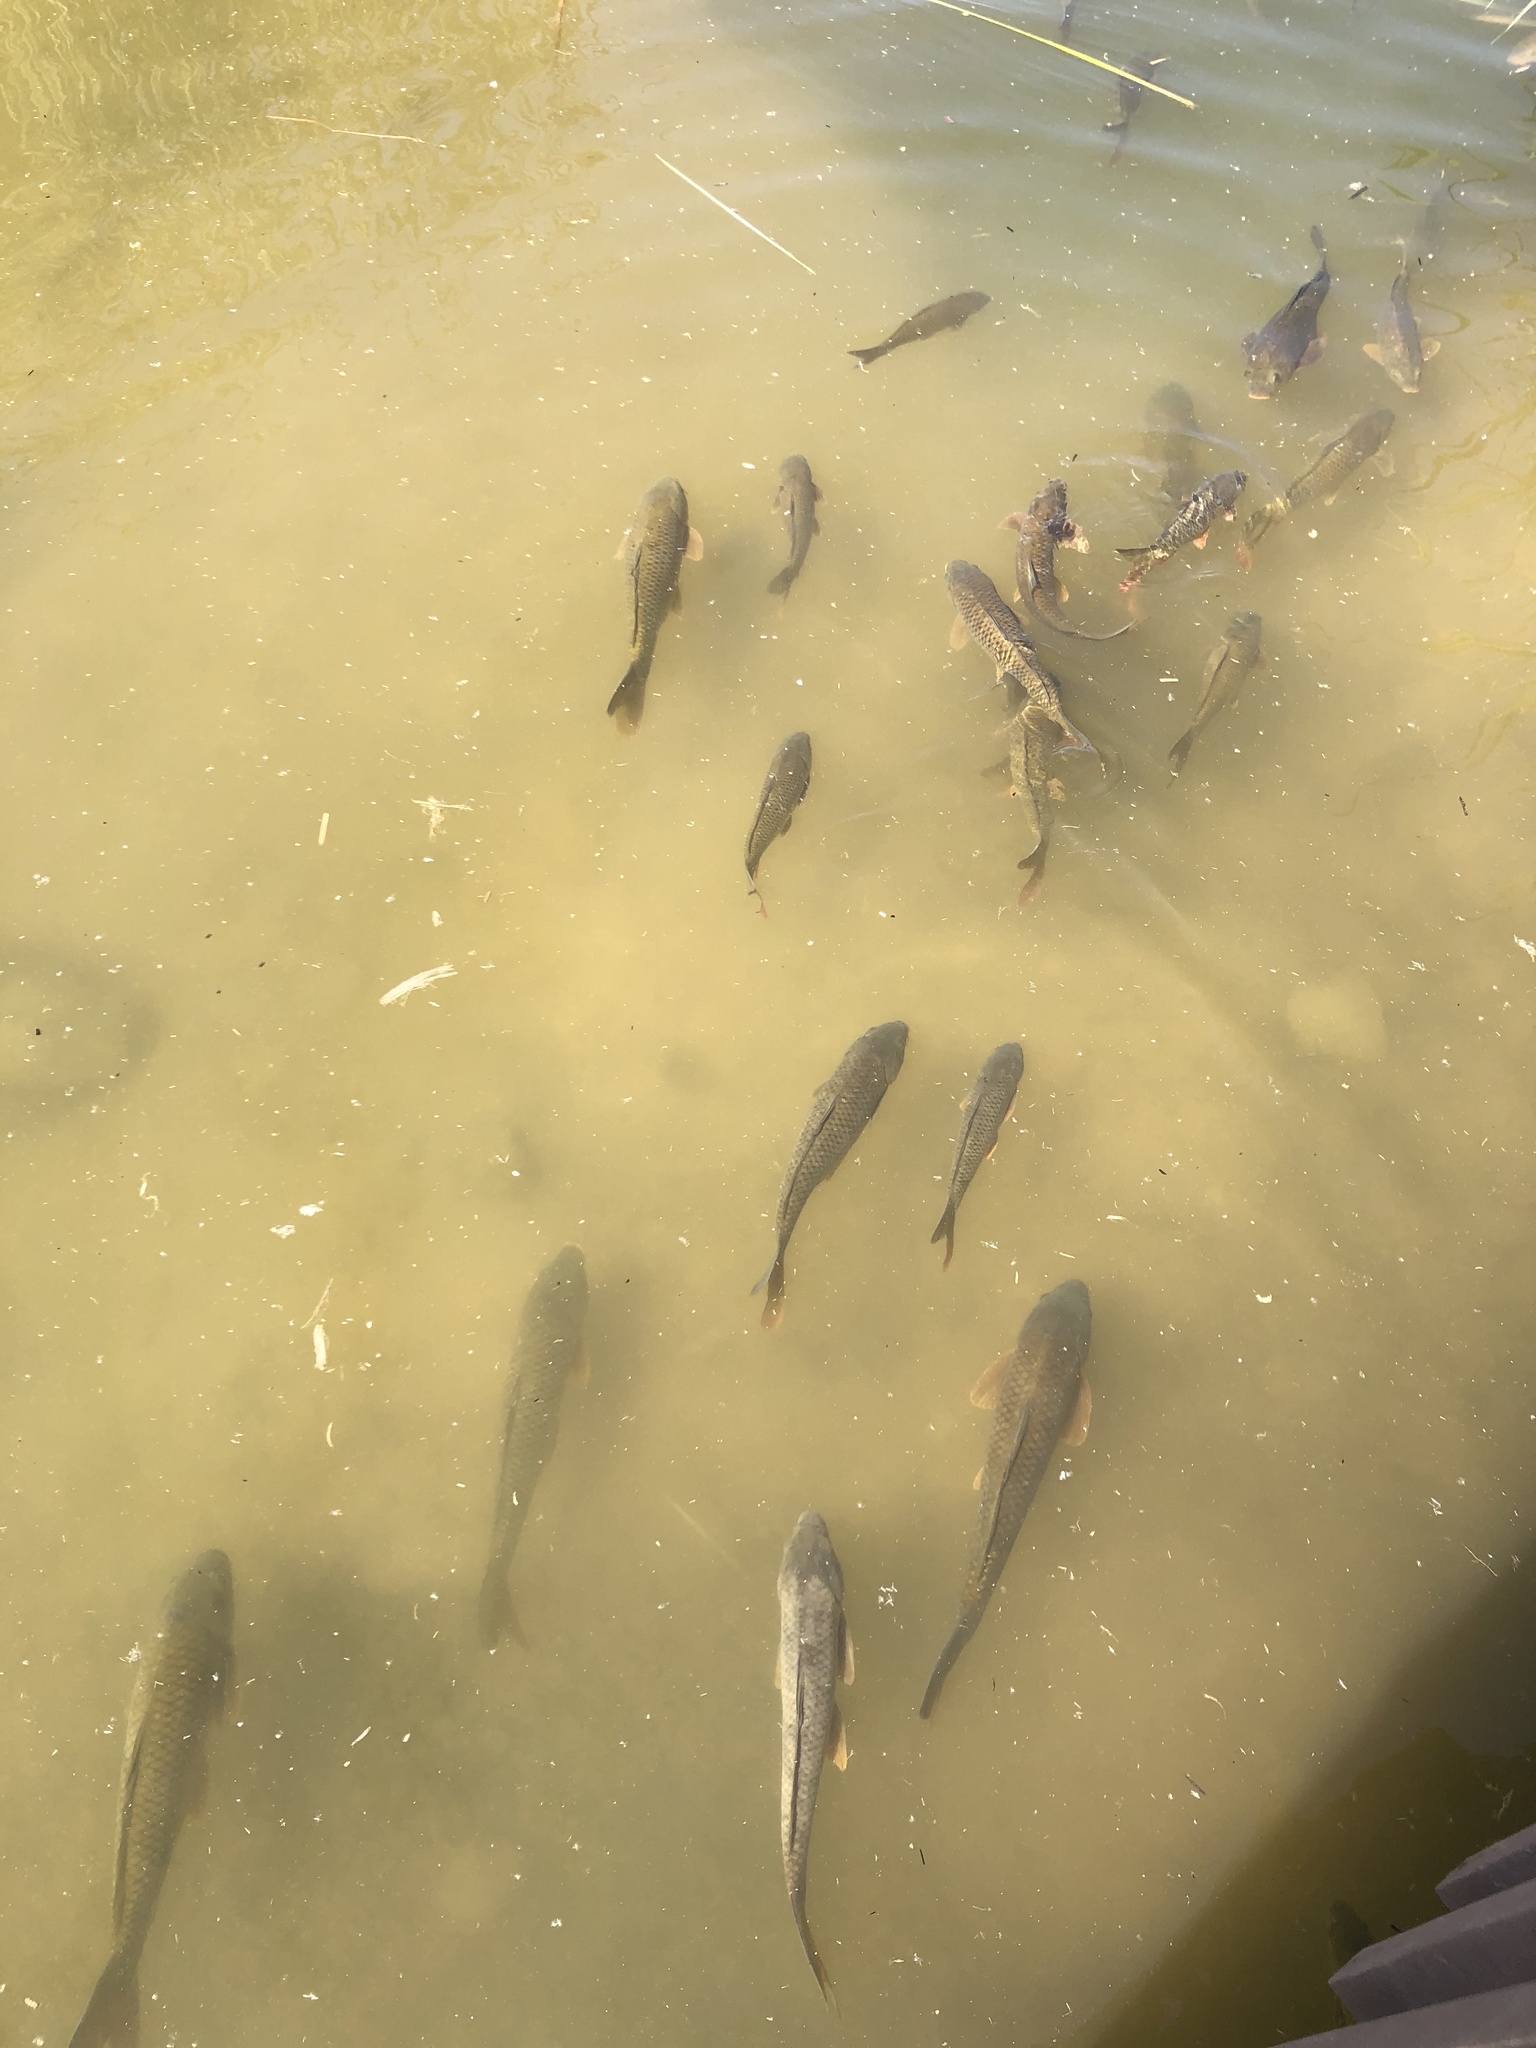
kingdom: Animalia
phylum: Chordata
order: Cypriniformes
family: Cyprinidae
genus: Cyprinus
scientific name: Cyprinus carpio
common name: Common carp
